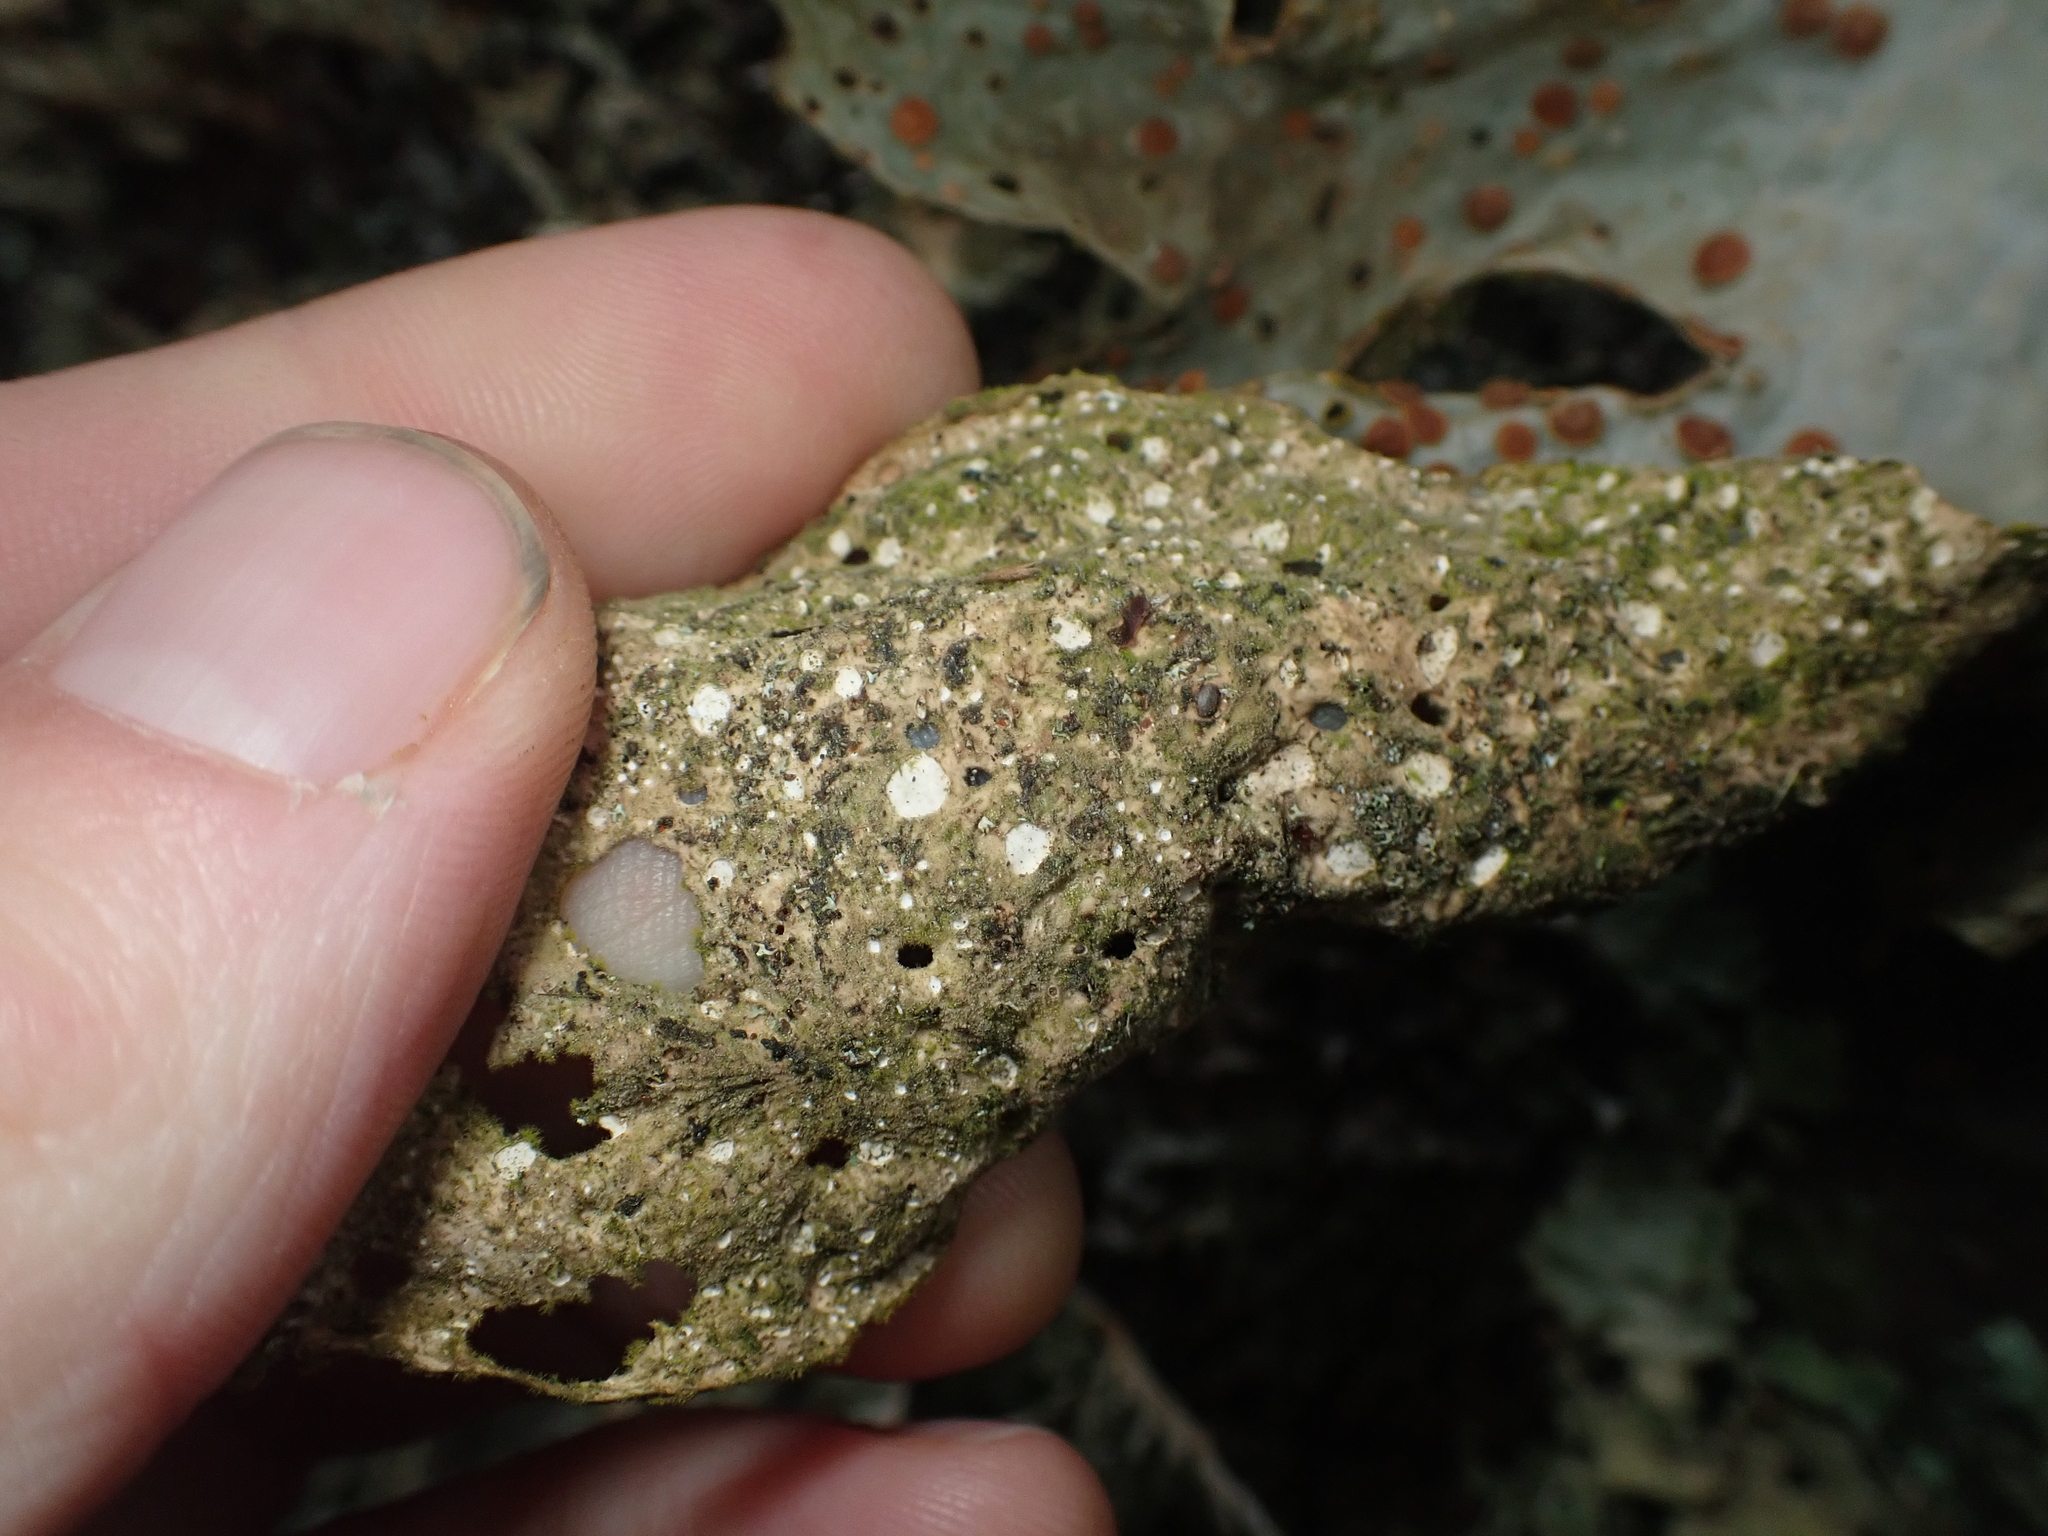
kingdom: Fungi
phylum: Ascomycota
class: Lecanoromycetes
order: Peltigerales
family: Lobariaceae
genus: Sticta
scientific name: Sticta latifrons
